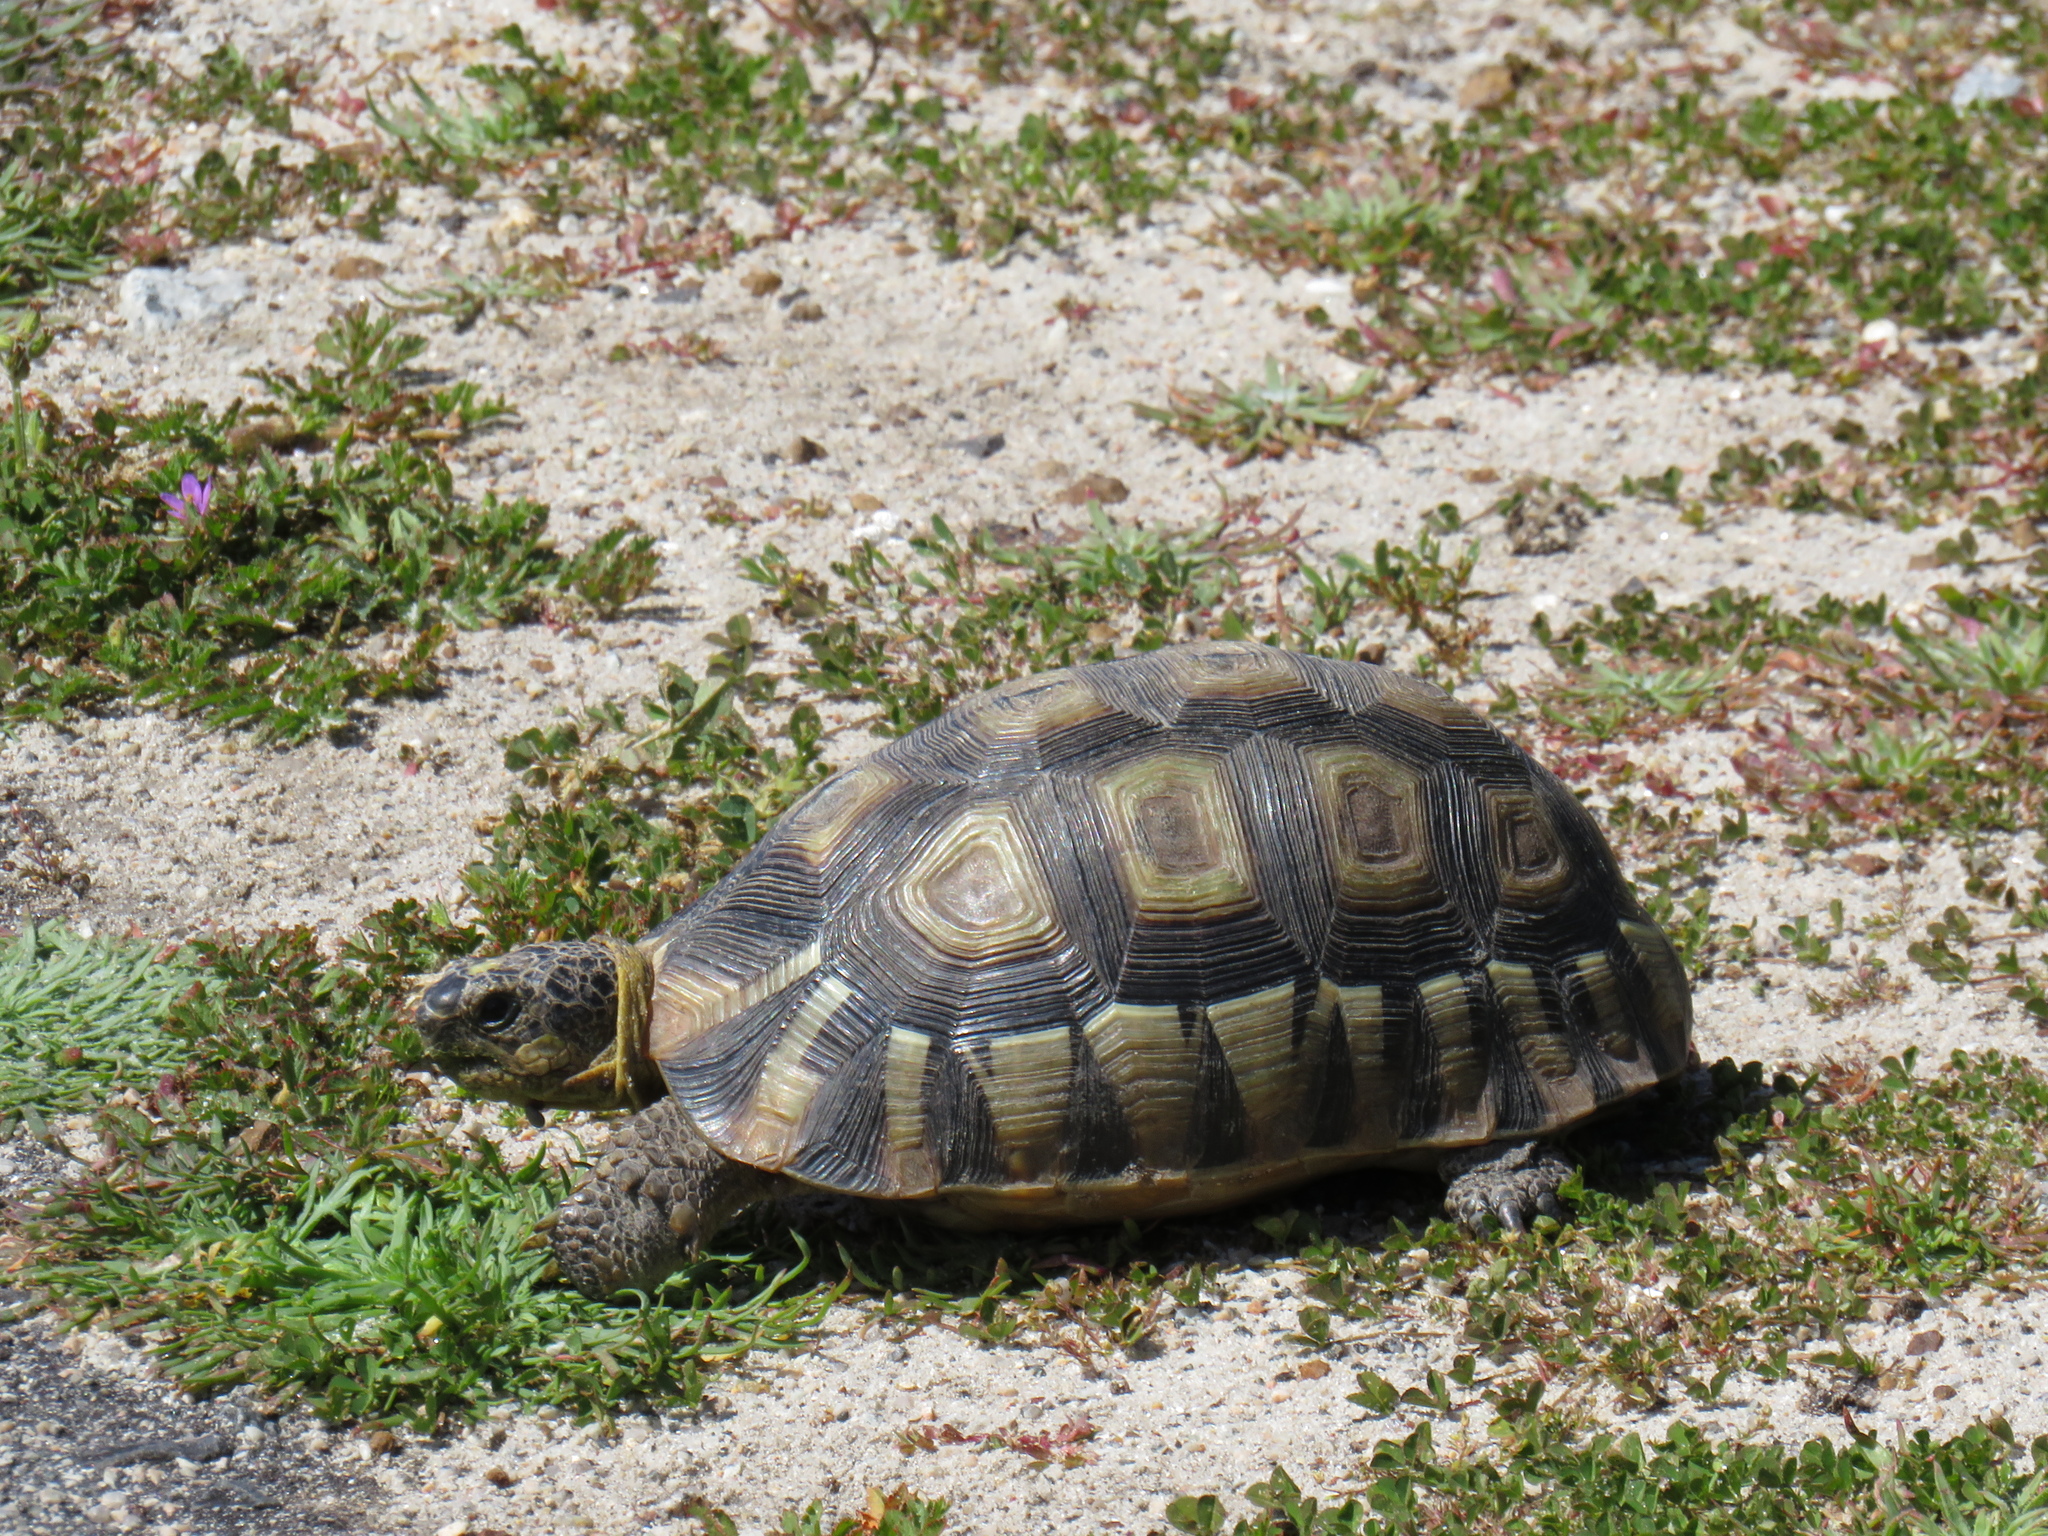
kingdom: Animalia
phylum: Chordata
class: Testudines
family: Testudinidae
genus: Chersina
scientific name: Chersina angulata
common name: South african bowsprit tortoise
